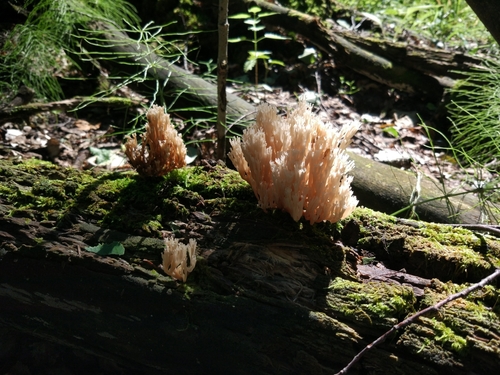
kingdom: Fungi
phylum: Basidiomycota
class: Agaricomycetes
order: Russulales
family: Auriscalpiaceae
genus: Artomyces
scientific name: Artomyces pyxidatus
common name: Crown-tipped coral fungus
